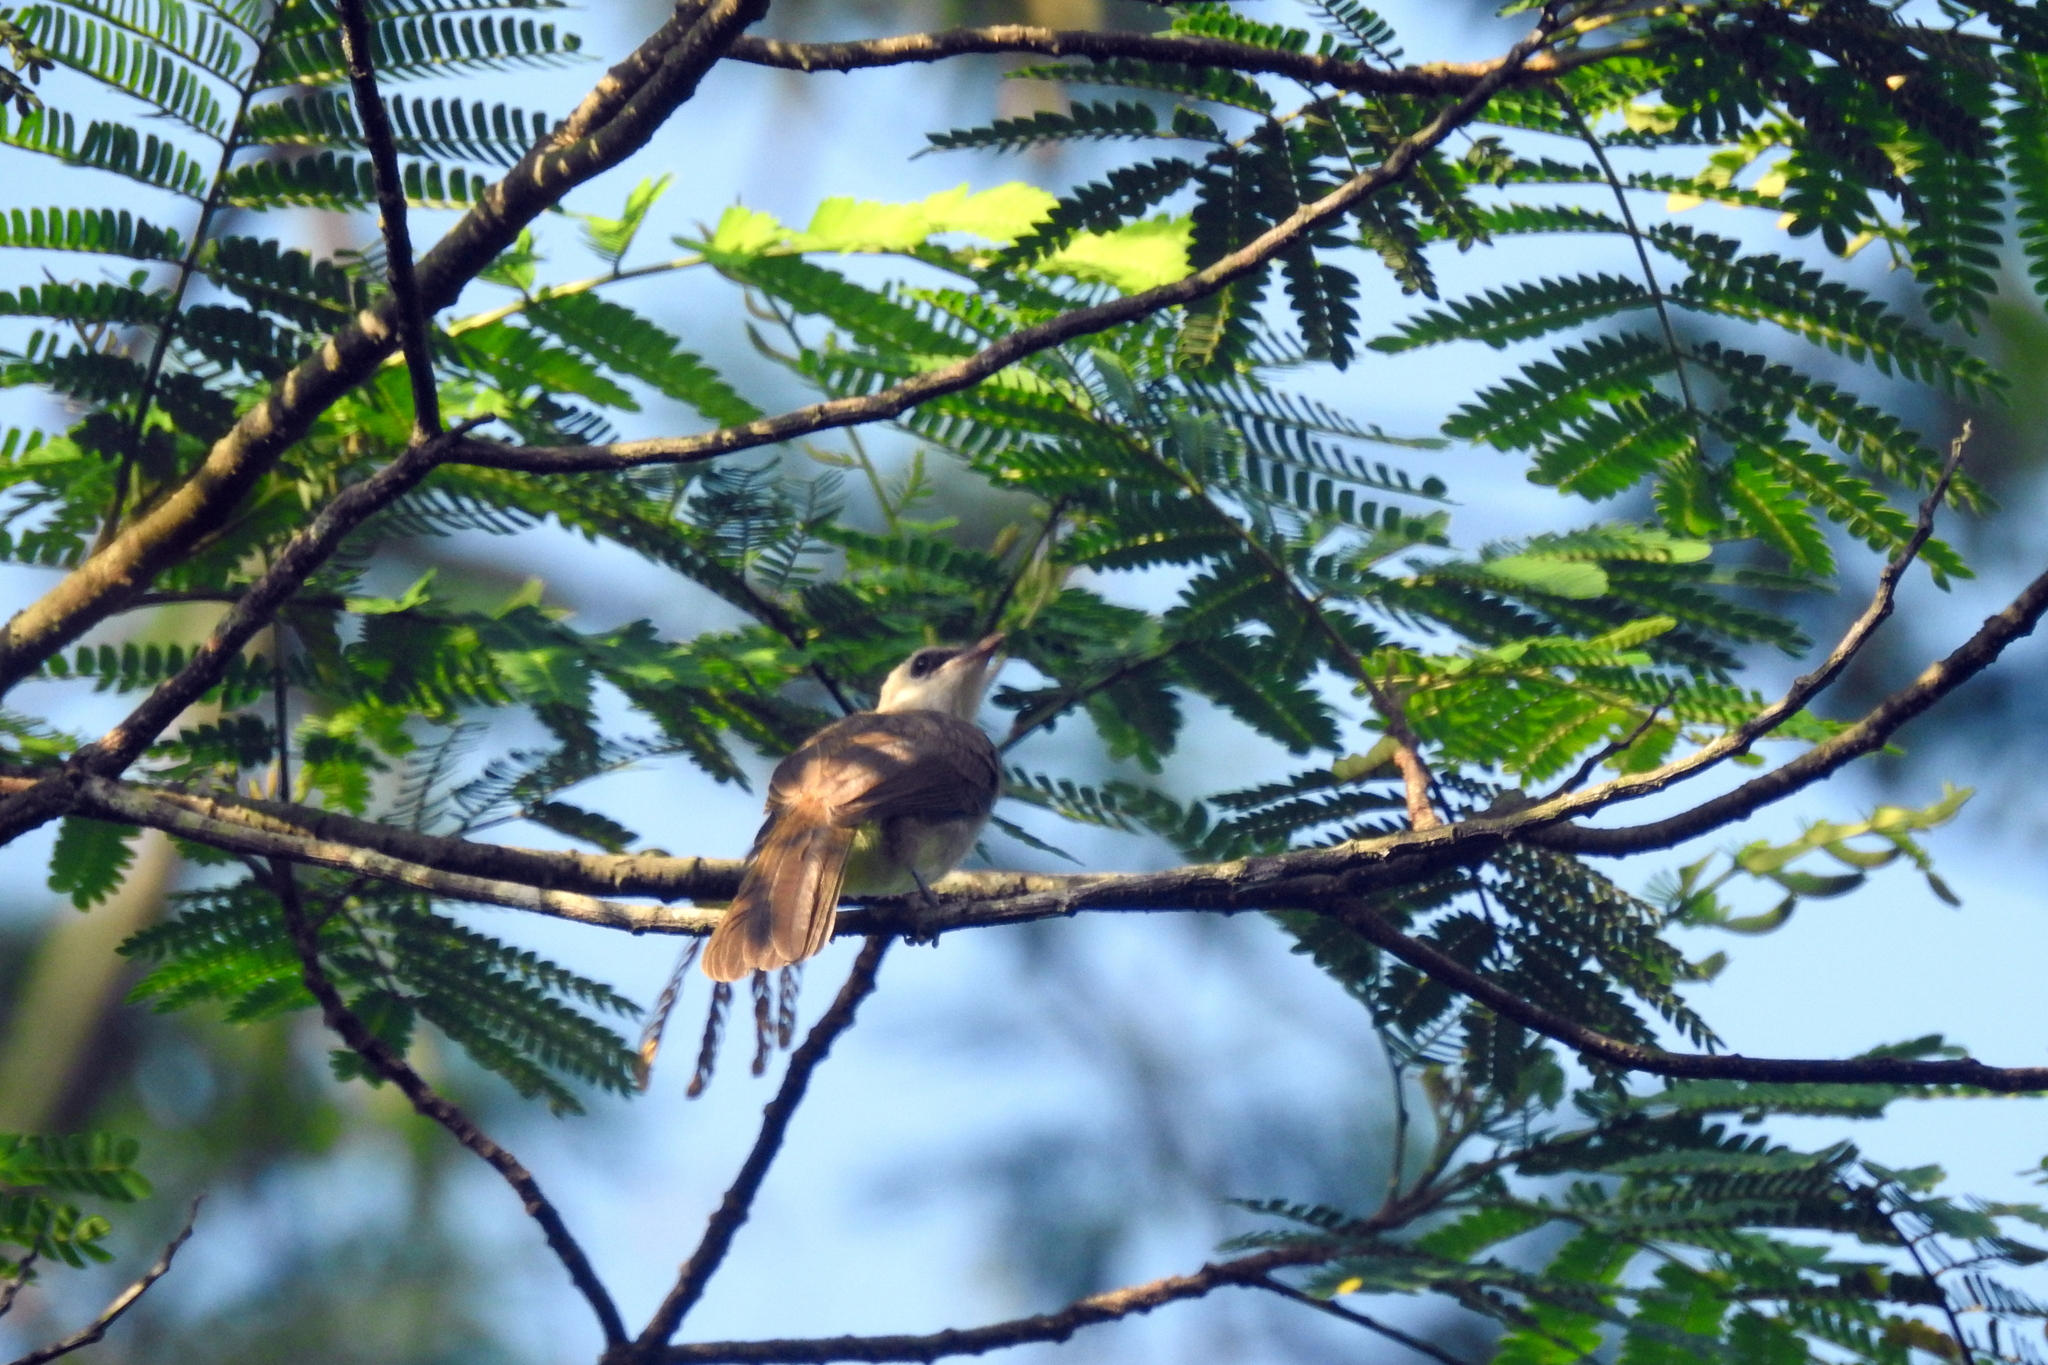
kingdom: Animalia
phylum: Chordata
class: Aves
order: Passeriformes
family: Pycnonotidae
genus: Pycnonotus
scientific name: Pycnonotus goiavier
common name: Yellow-vented bulbul
